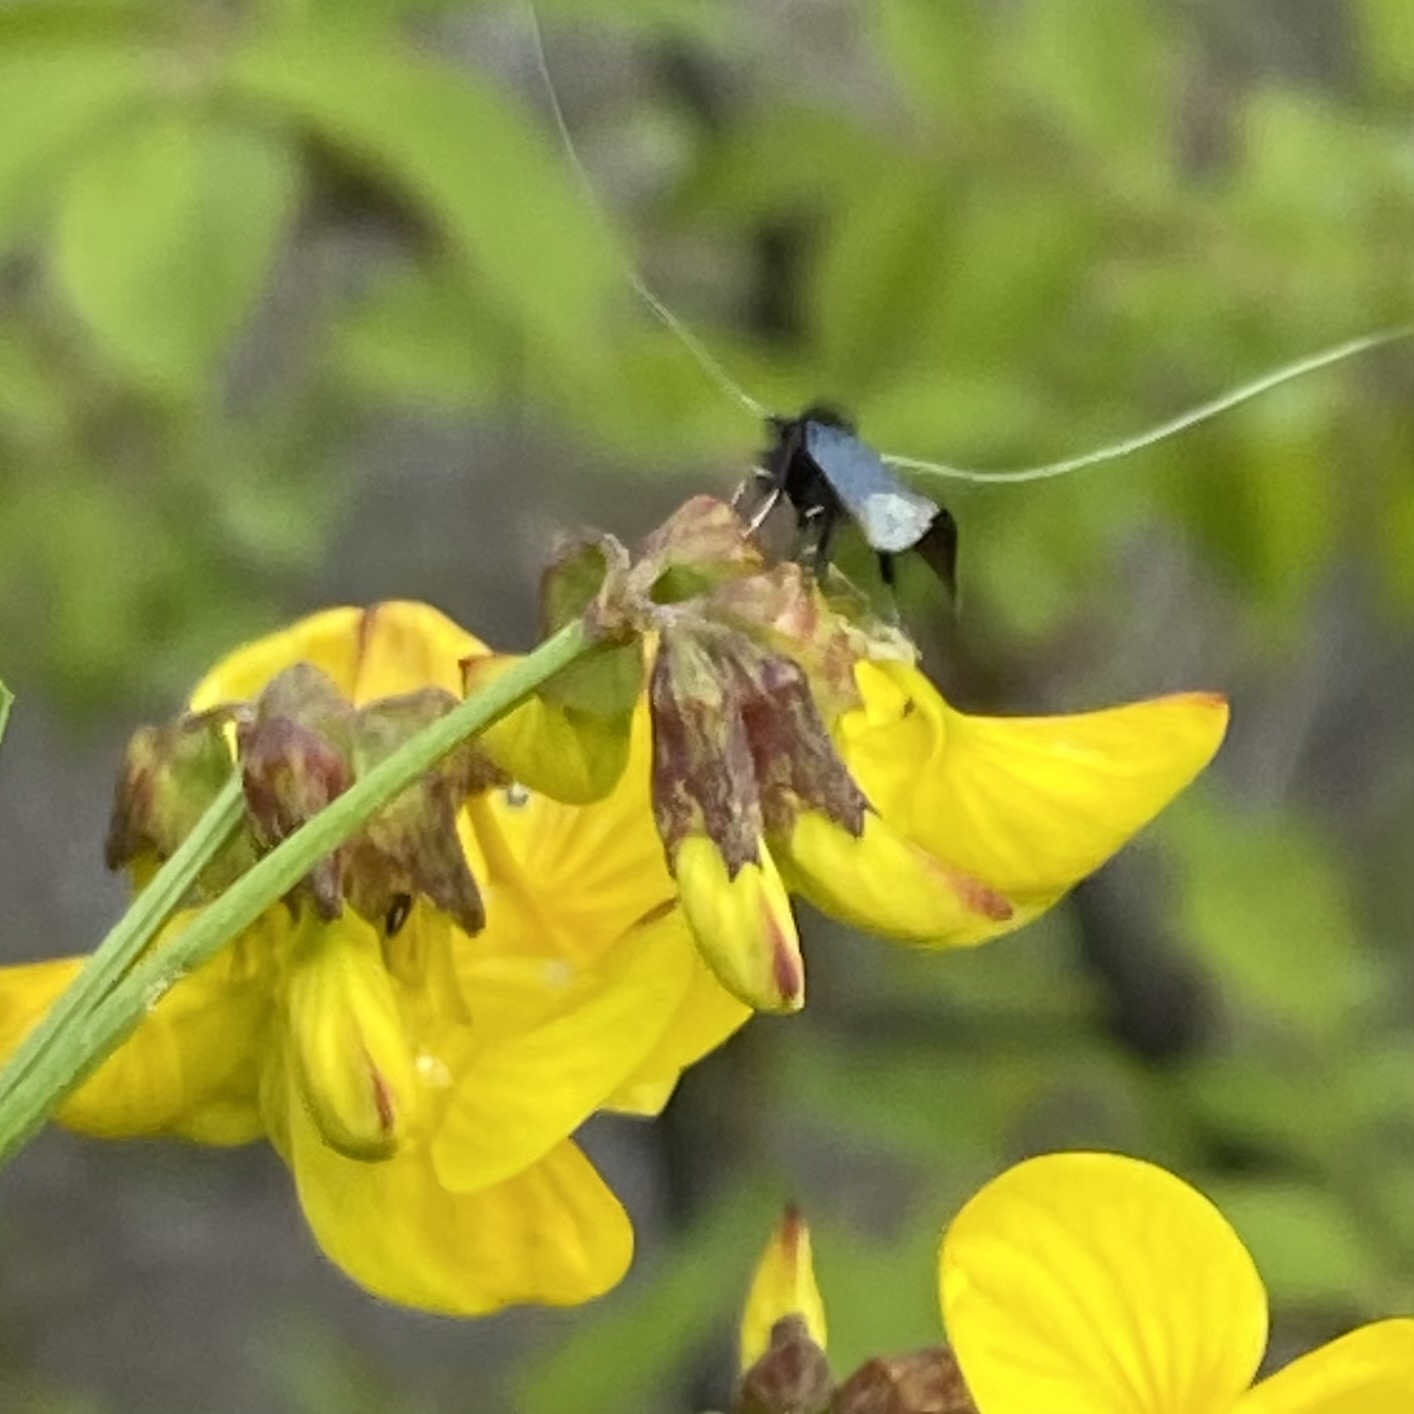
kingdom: Animalia
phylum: Arthropoda
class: Insecta
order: Lepidoptera
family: Adelidae
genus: Adela
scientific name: Adela viridella
